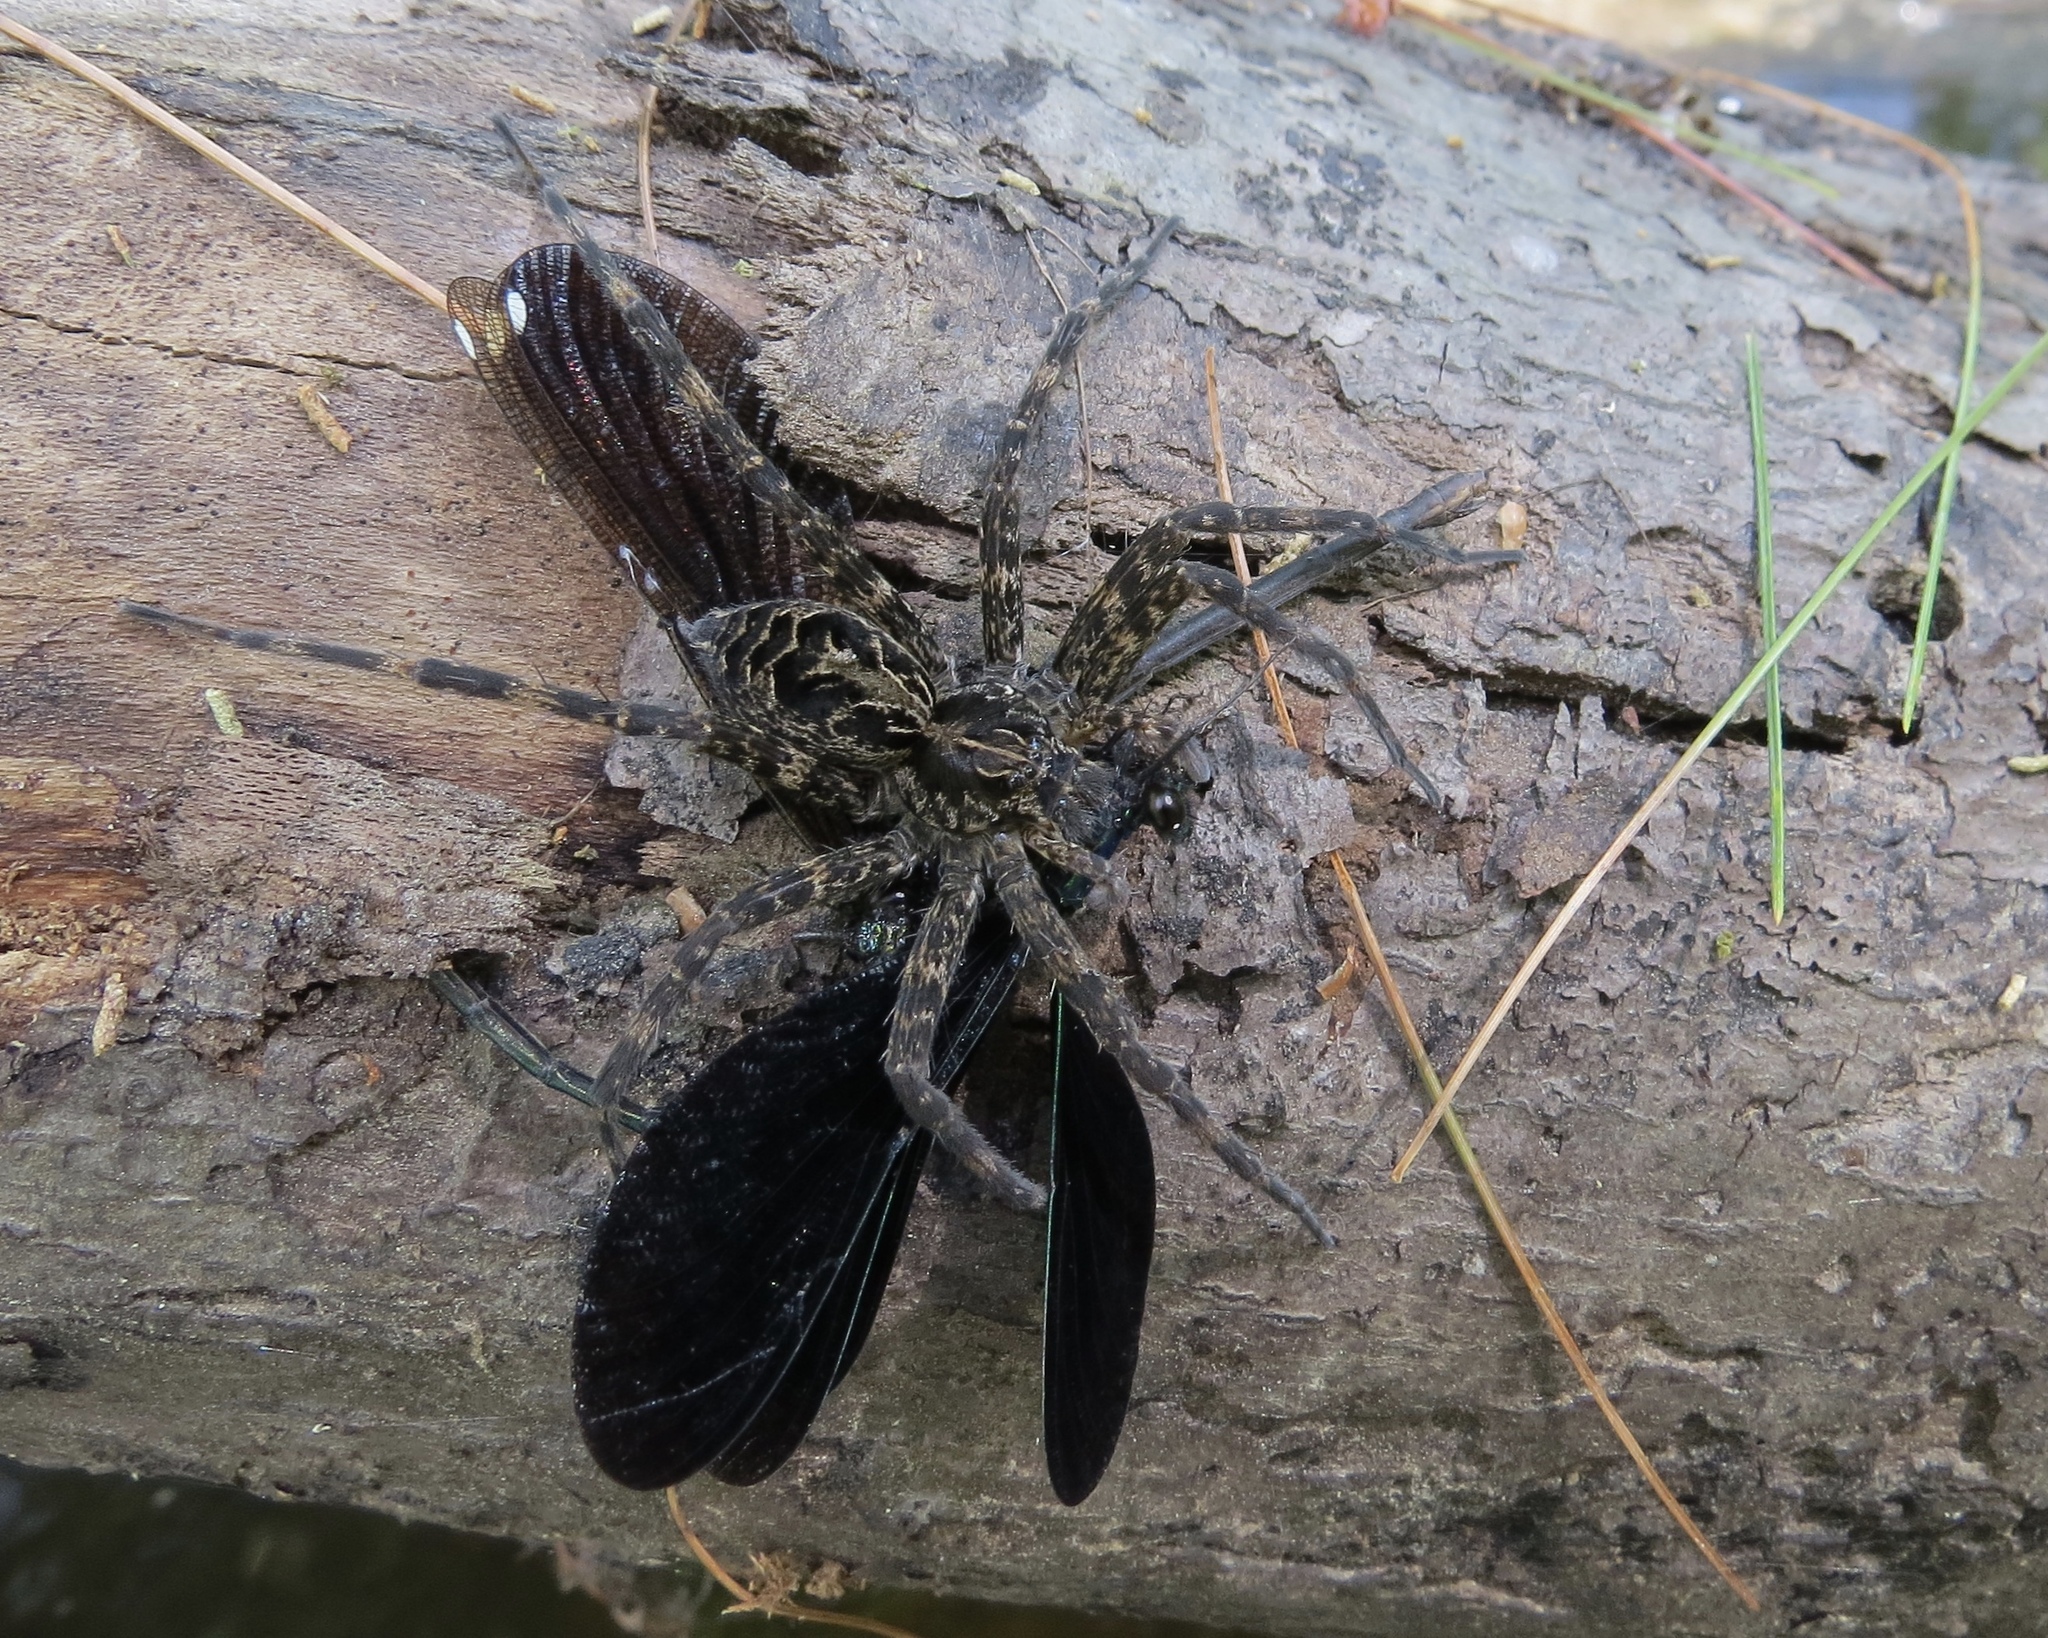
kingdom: Animalia
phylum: Arthropoda
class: Arachnida
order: Araneae
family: Pisauridae
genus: Dolomedes
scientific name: Dolomedes scriptus
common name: Striped fishing spider
